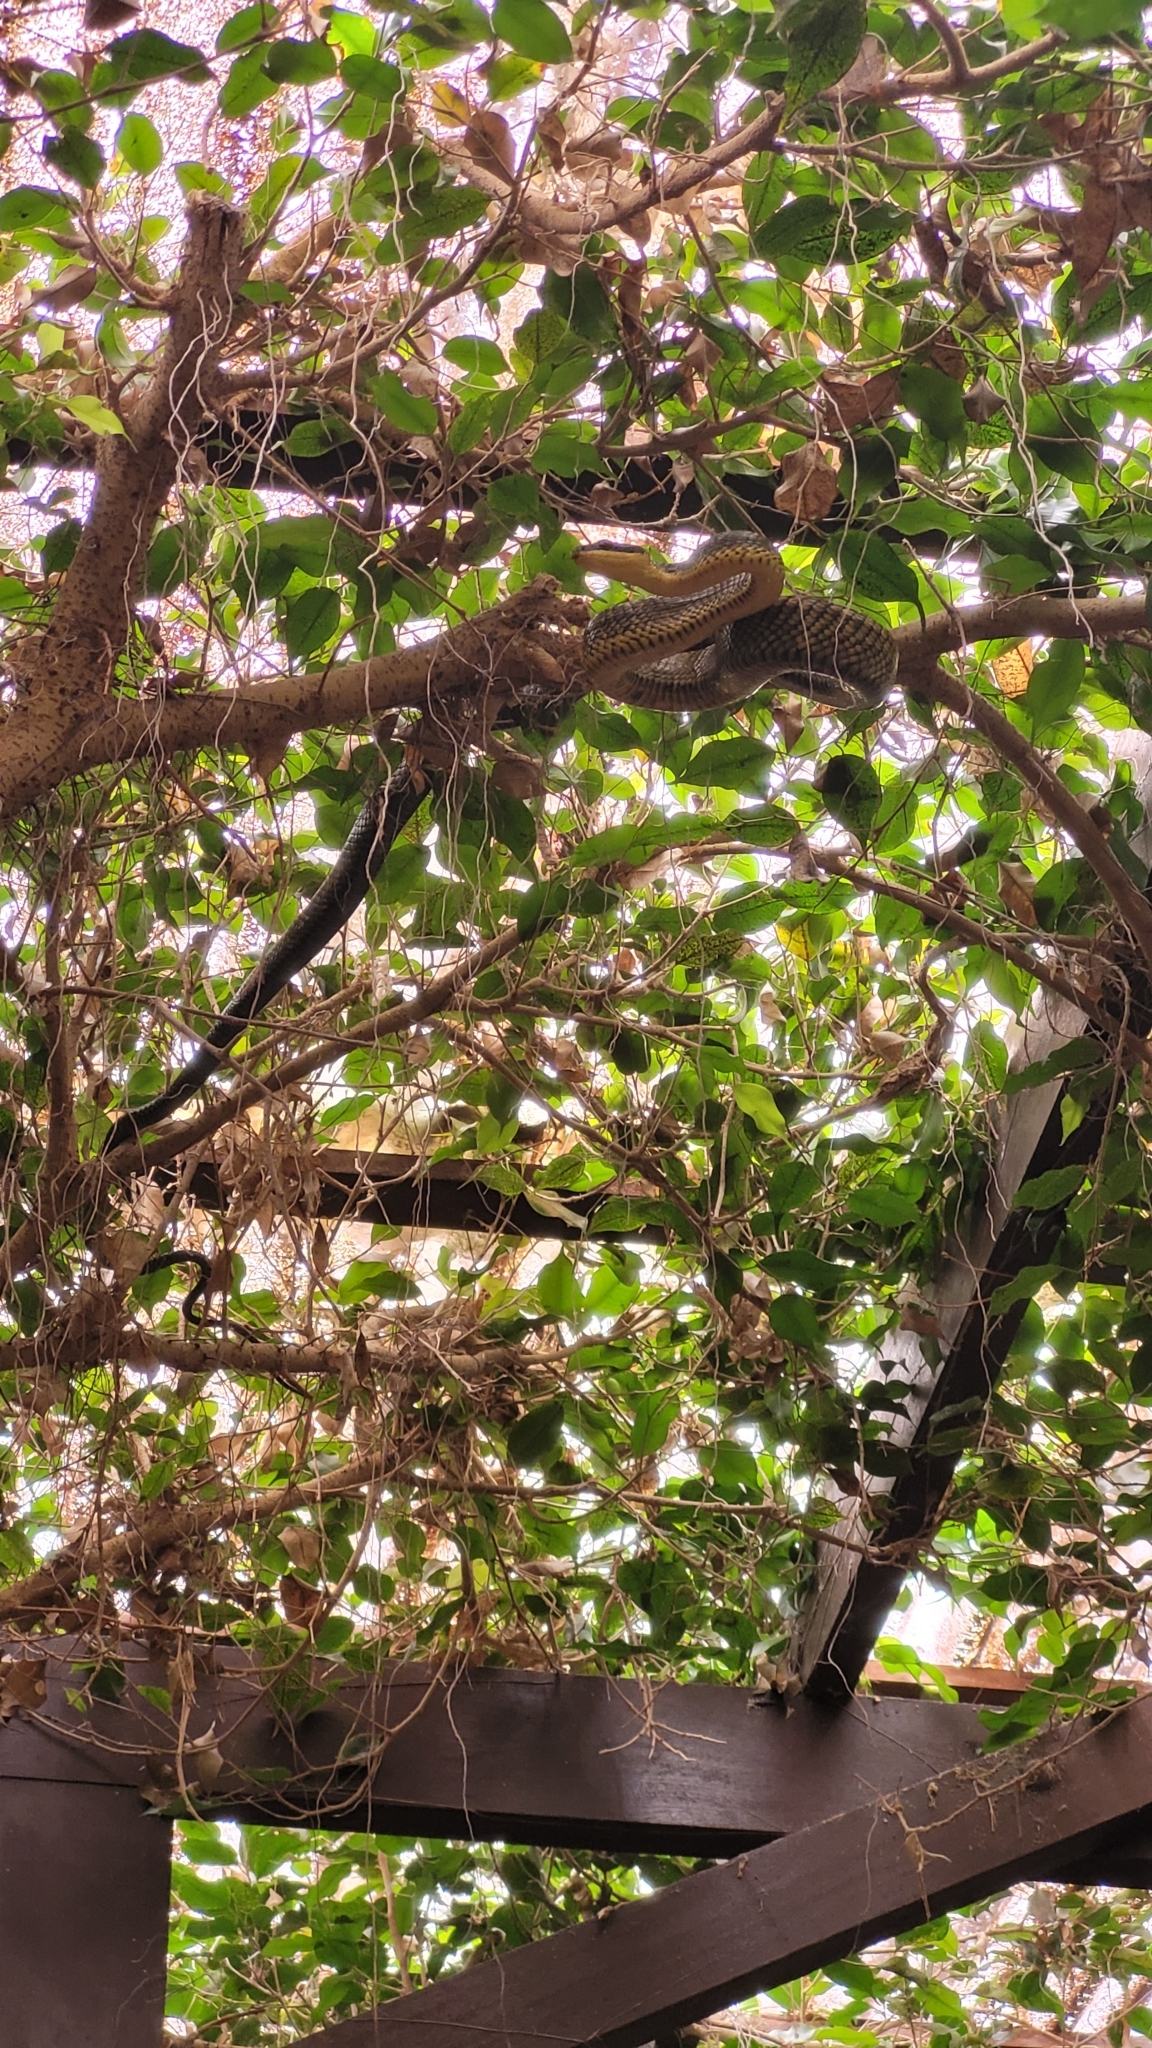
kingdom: Animalia
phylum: Chordata
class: Squamata
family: Colubridae
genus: Phrynonax
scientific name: Phrynonax poecilonotus
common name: Puffing snake
